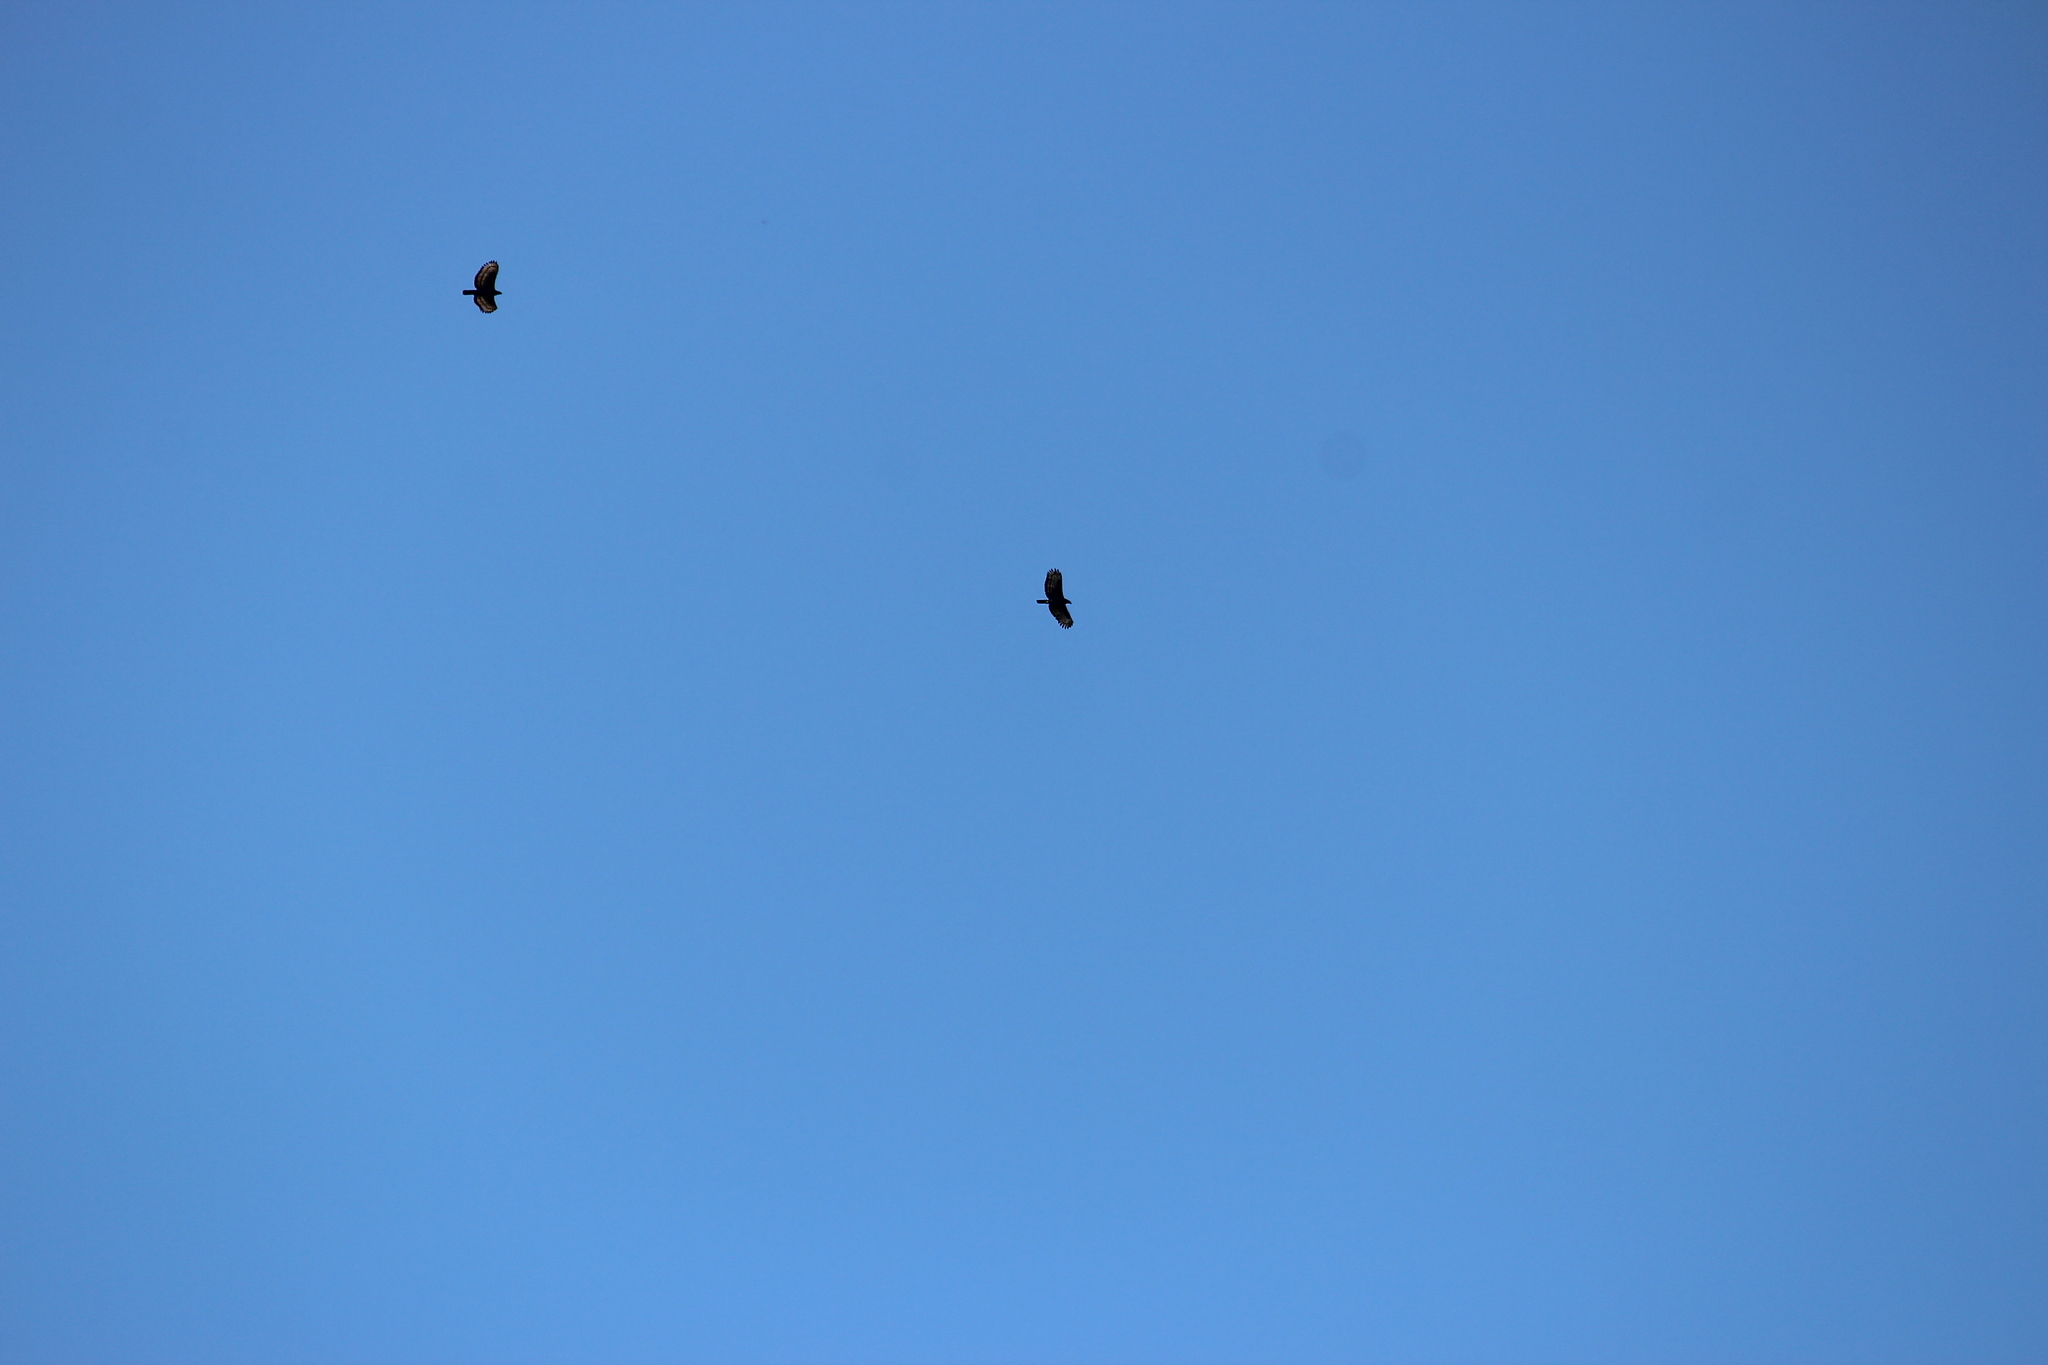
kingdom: Animalia
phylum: Chordata
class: Aves
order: Accipitriformes
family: Accipitridae
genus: Stephanoaetus
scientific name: Stephanoaetus coronatus
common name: Crowned eagle
